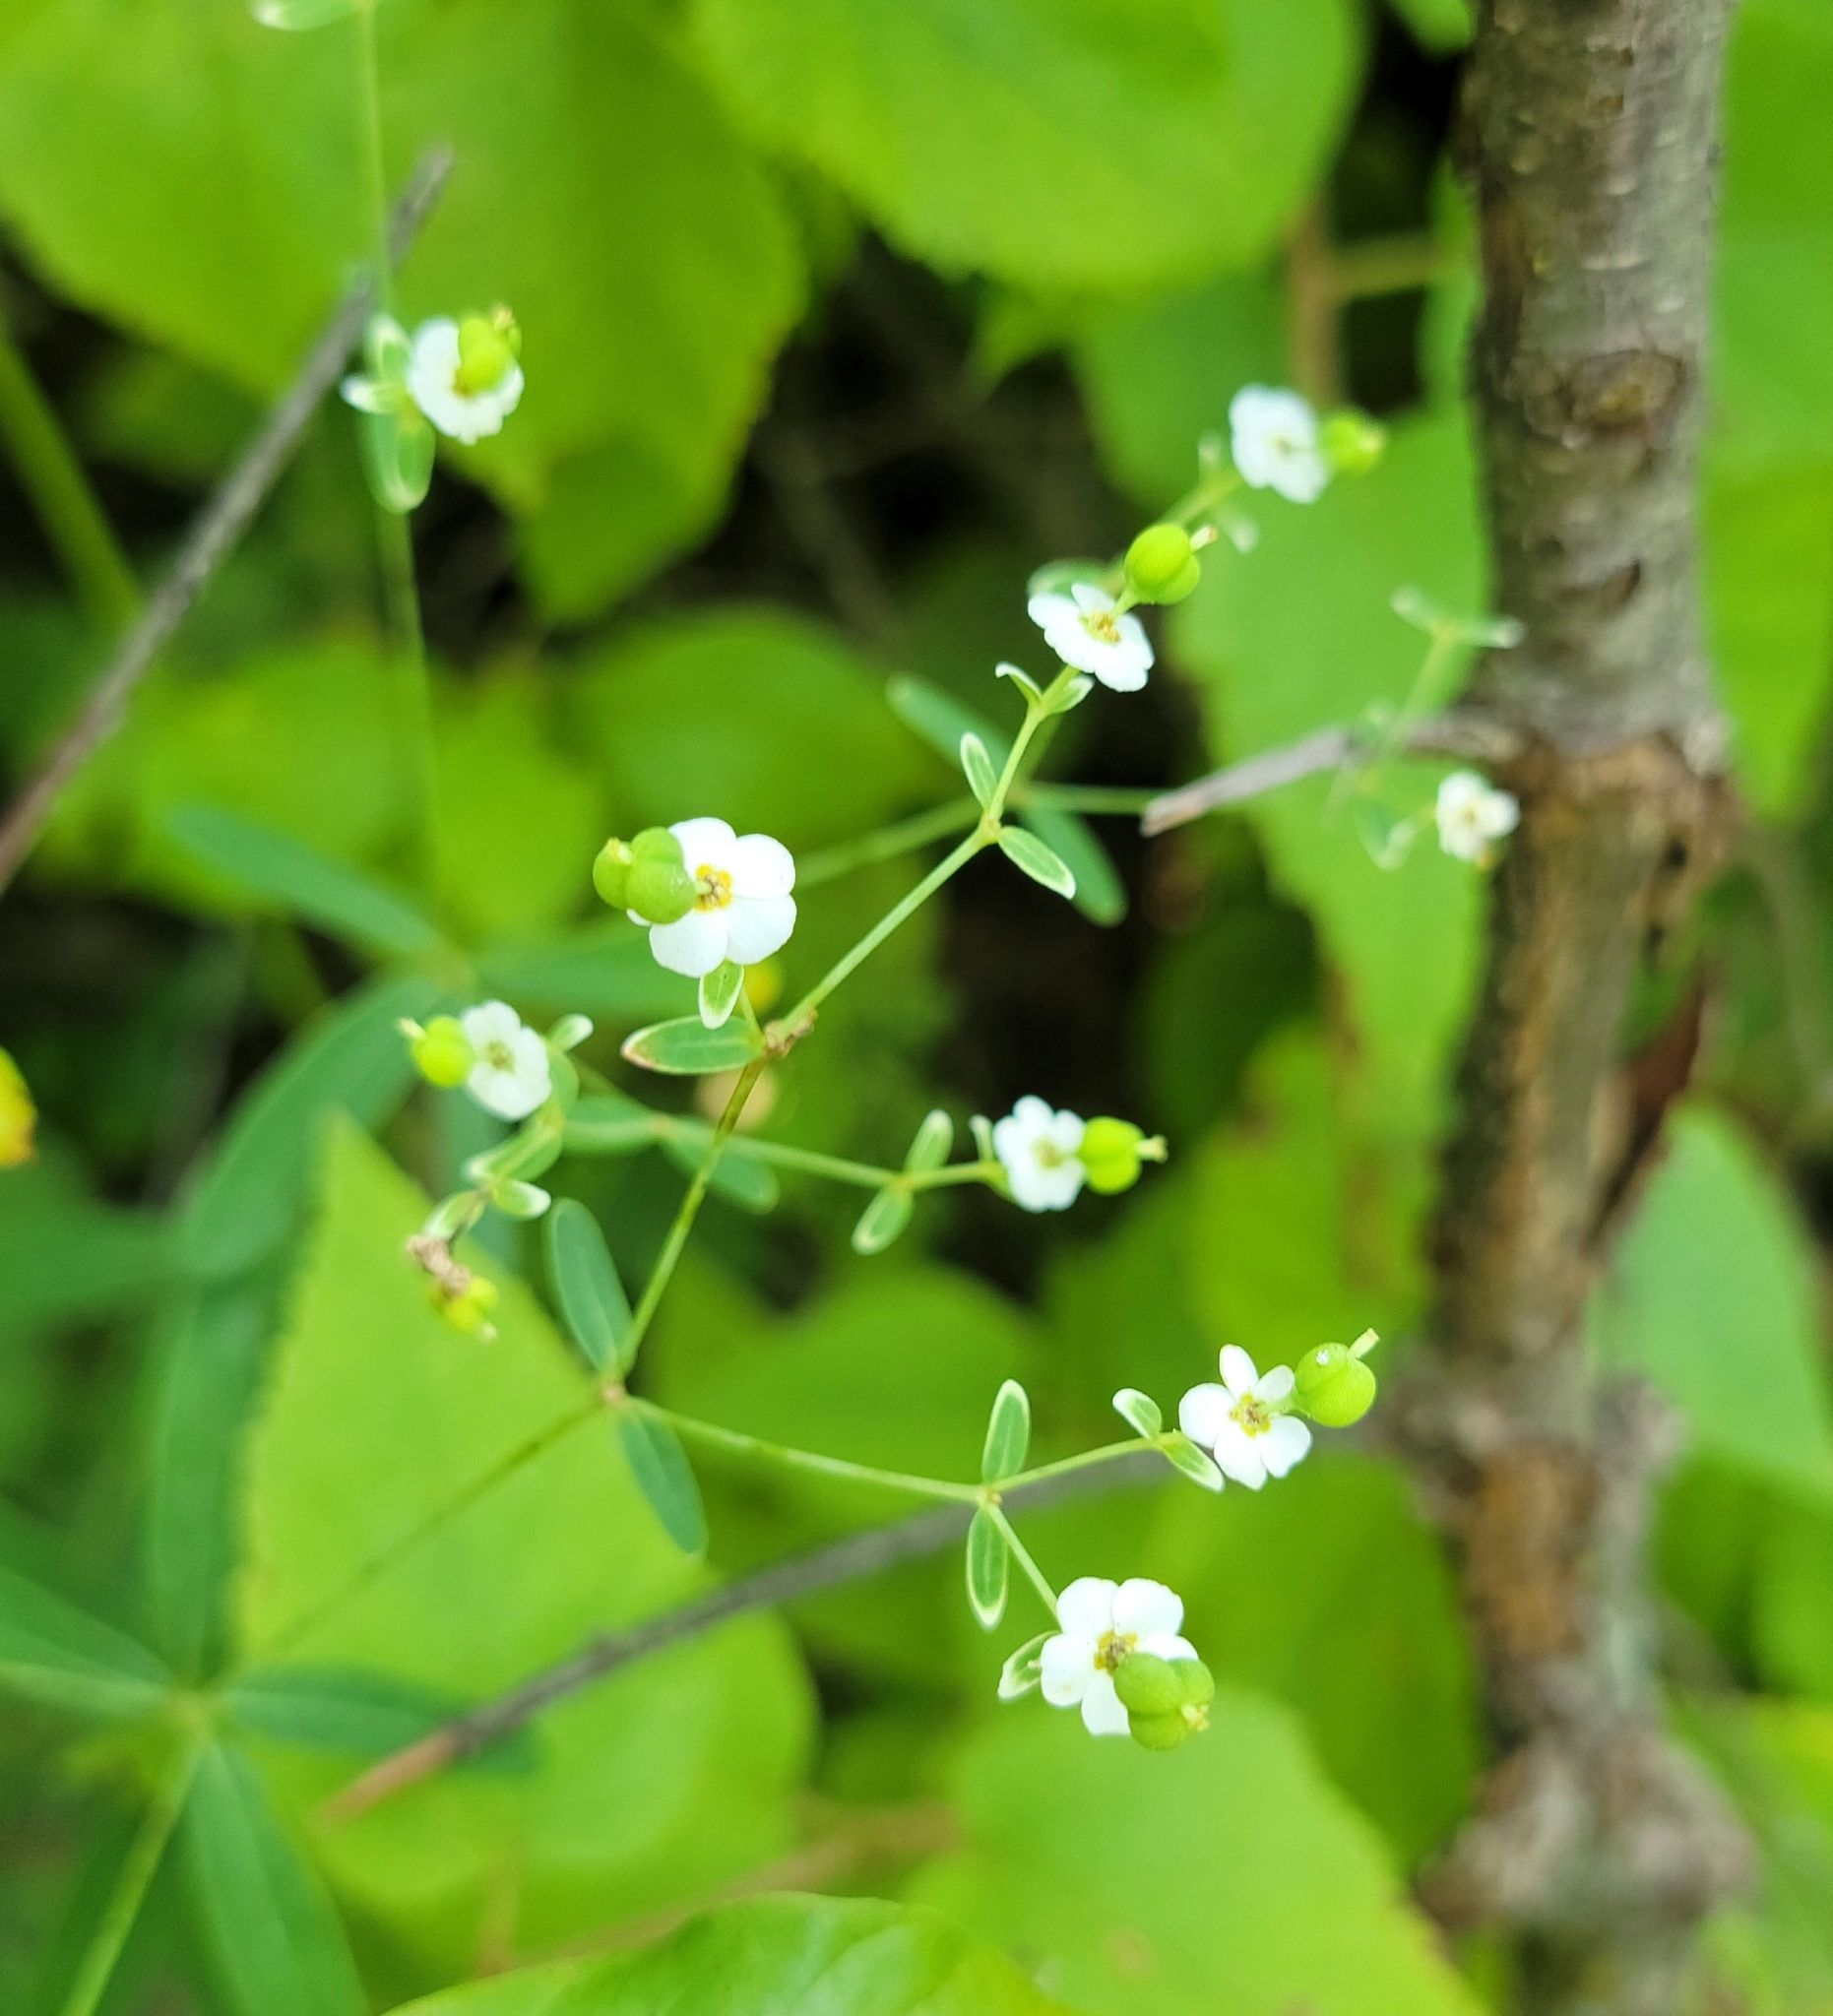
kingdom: Plantae
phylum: Tracheophyta
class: Magnoliopsida
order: Malpighiales
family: Euphorbiaceae
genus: Euphorbia
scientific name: Euphorbia corollata
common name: Flowering spurge
